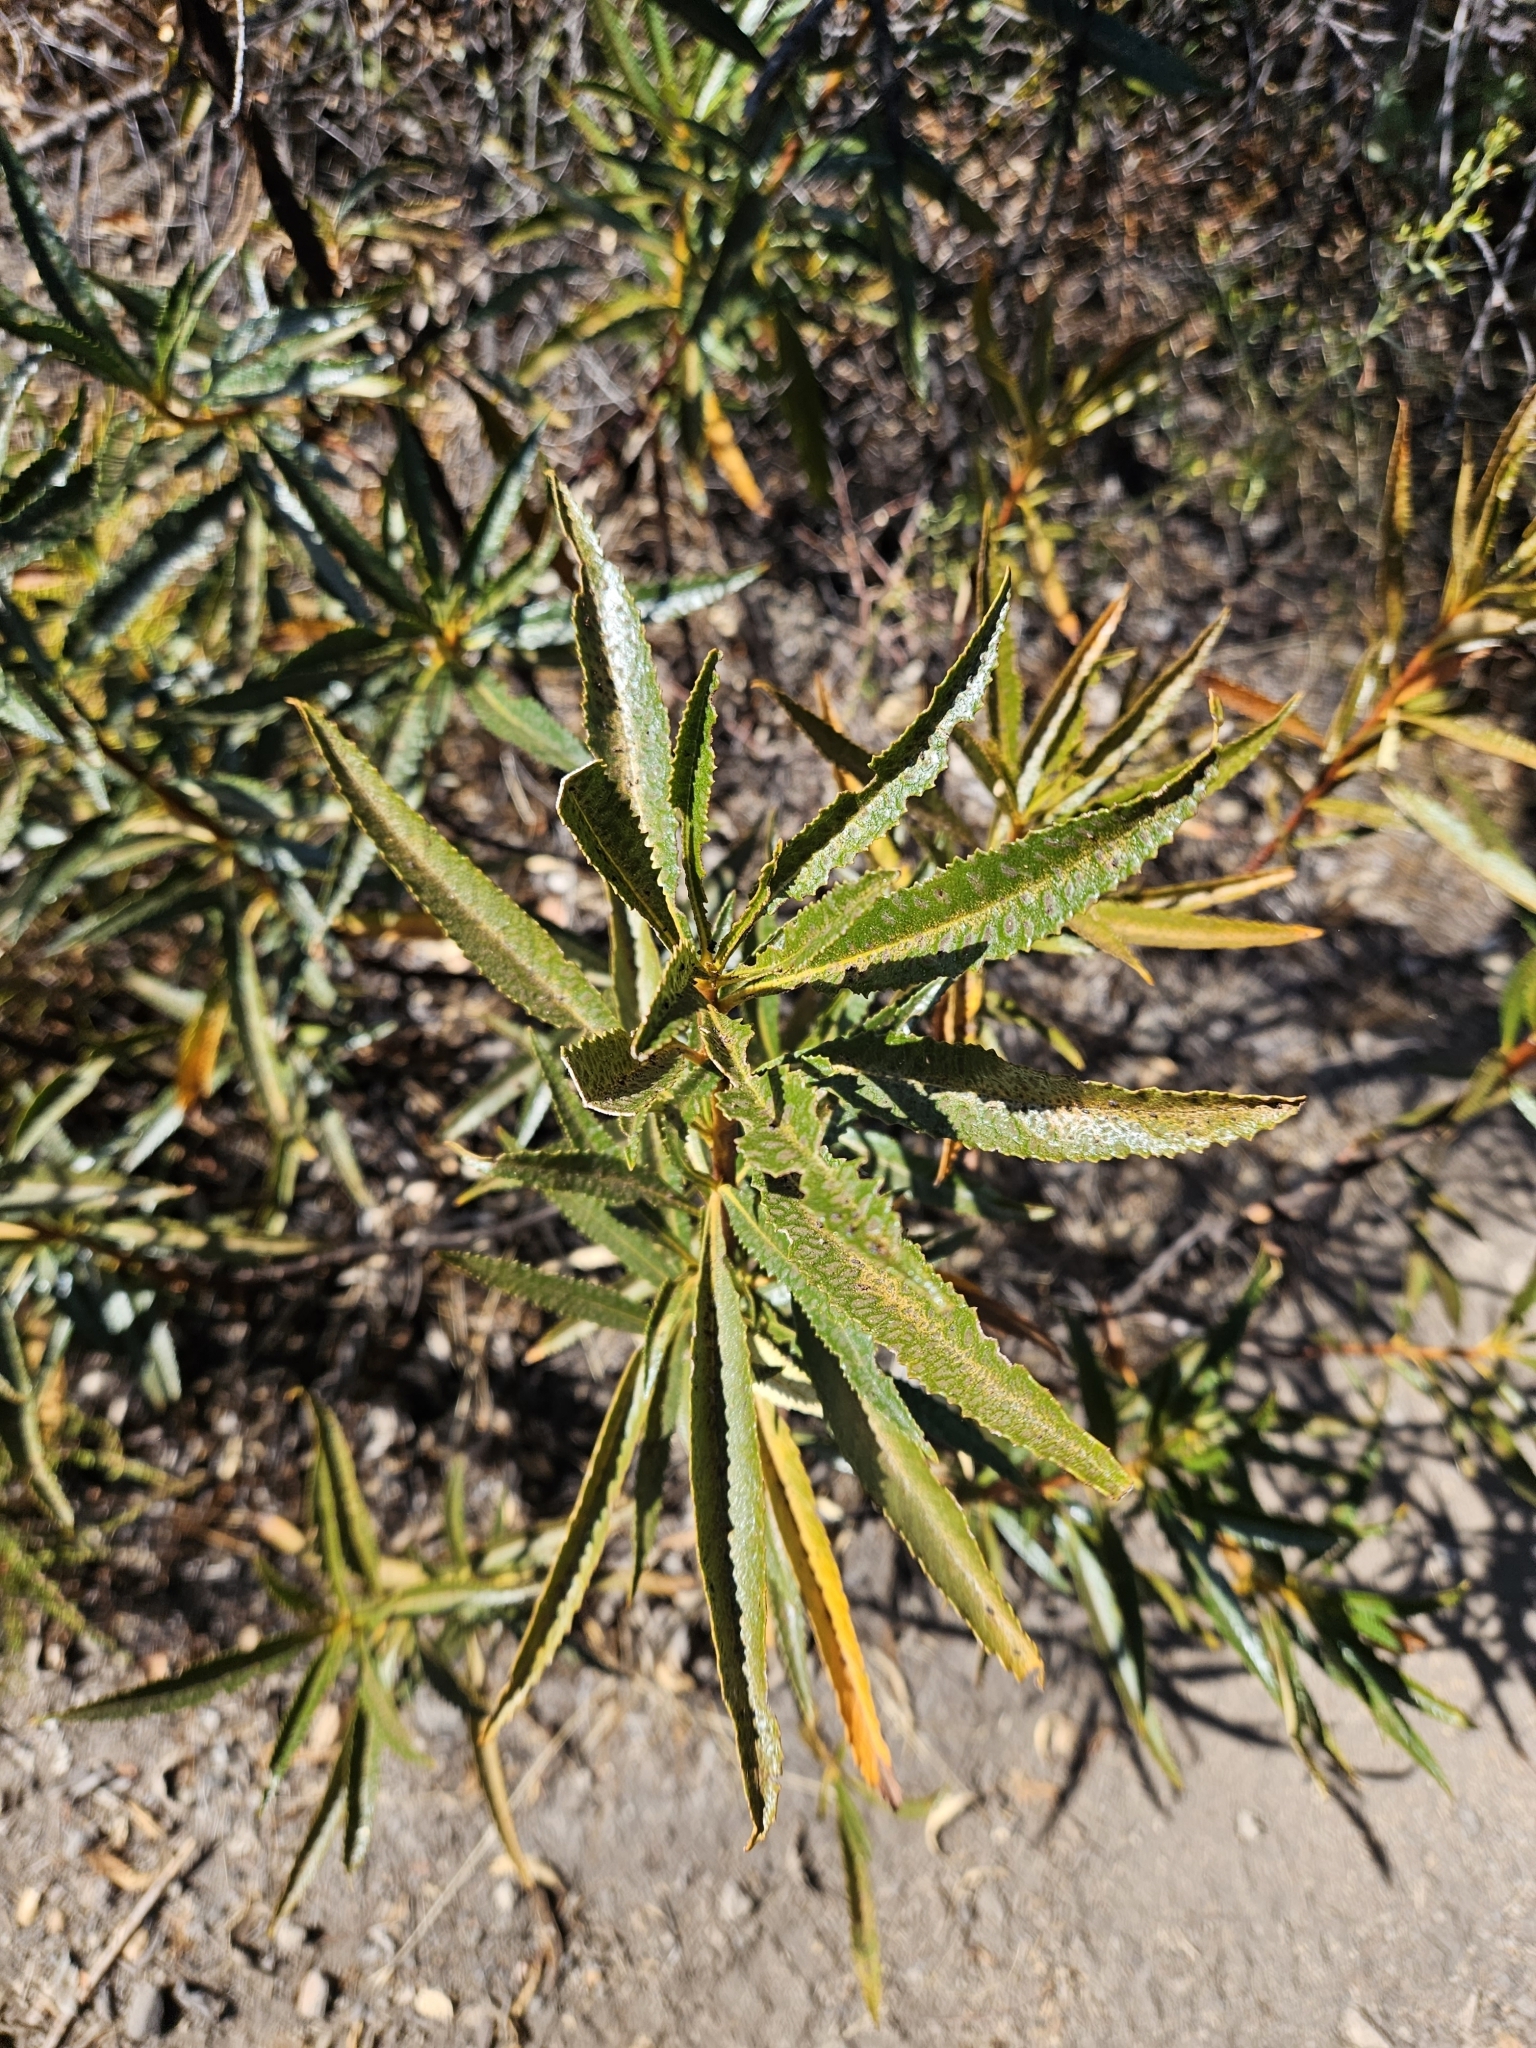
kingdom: Plantae
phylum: Tracheophyta
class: Magnoliopsida
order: Boraginales
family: Namaceae
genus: Eriodictyon
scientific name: Eriodictyon californicum
